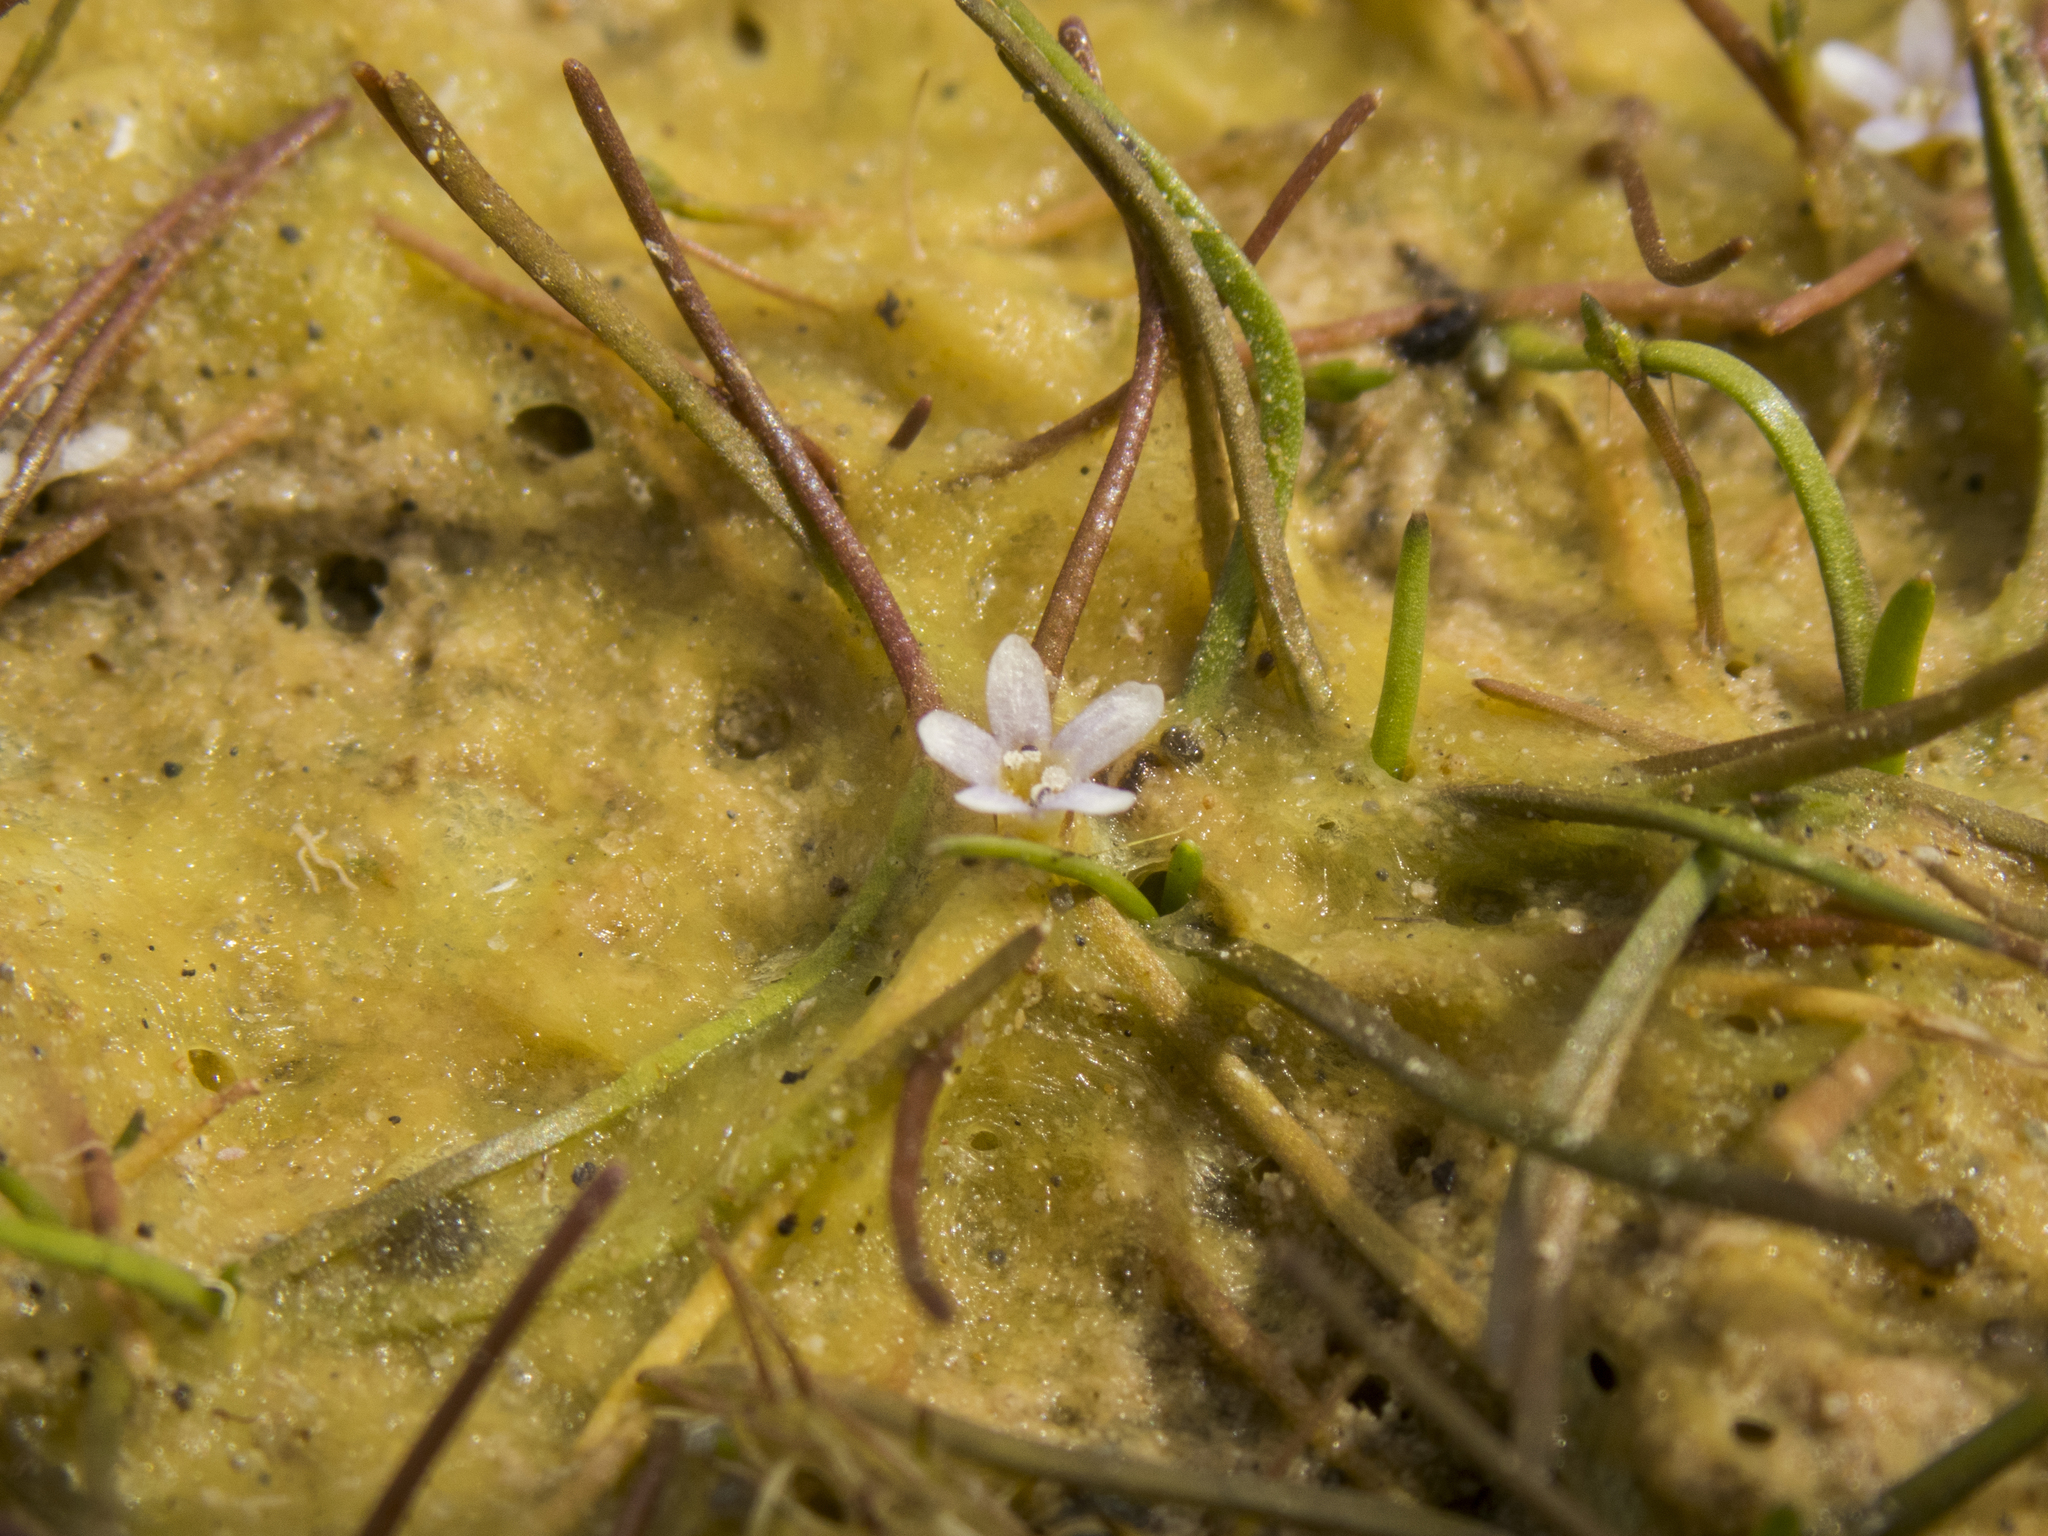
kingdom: Plantae
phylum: Tracheophyta
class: Magnoliopsida
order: Lamiales
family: Scrophulariaceae
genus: Limosella
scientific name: Limosella australis
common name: Welsh mudwort
